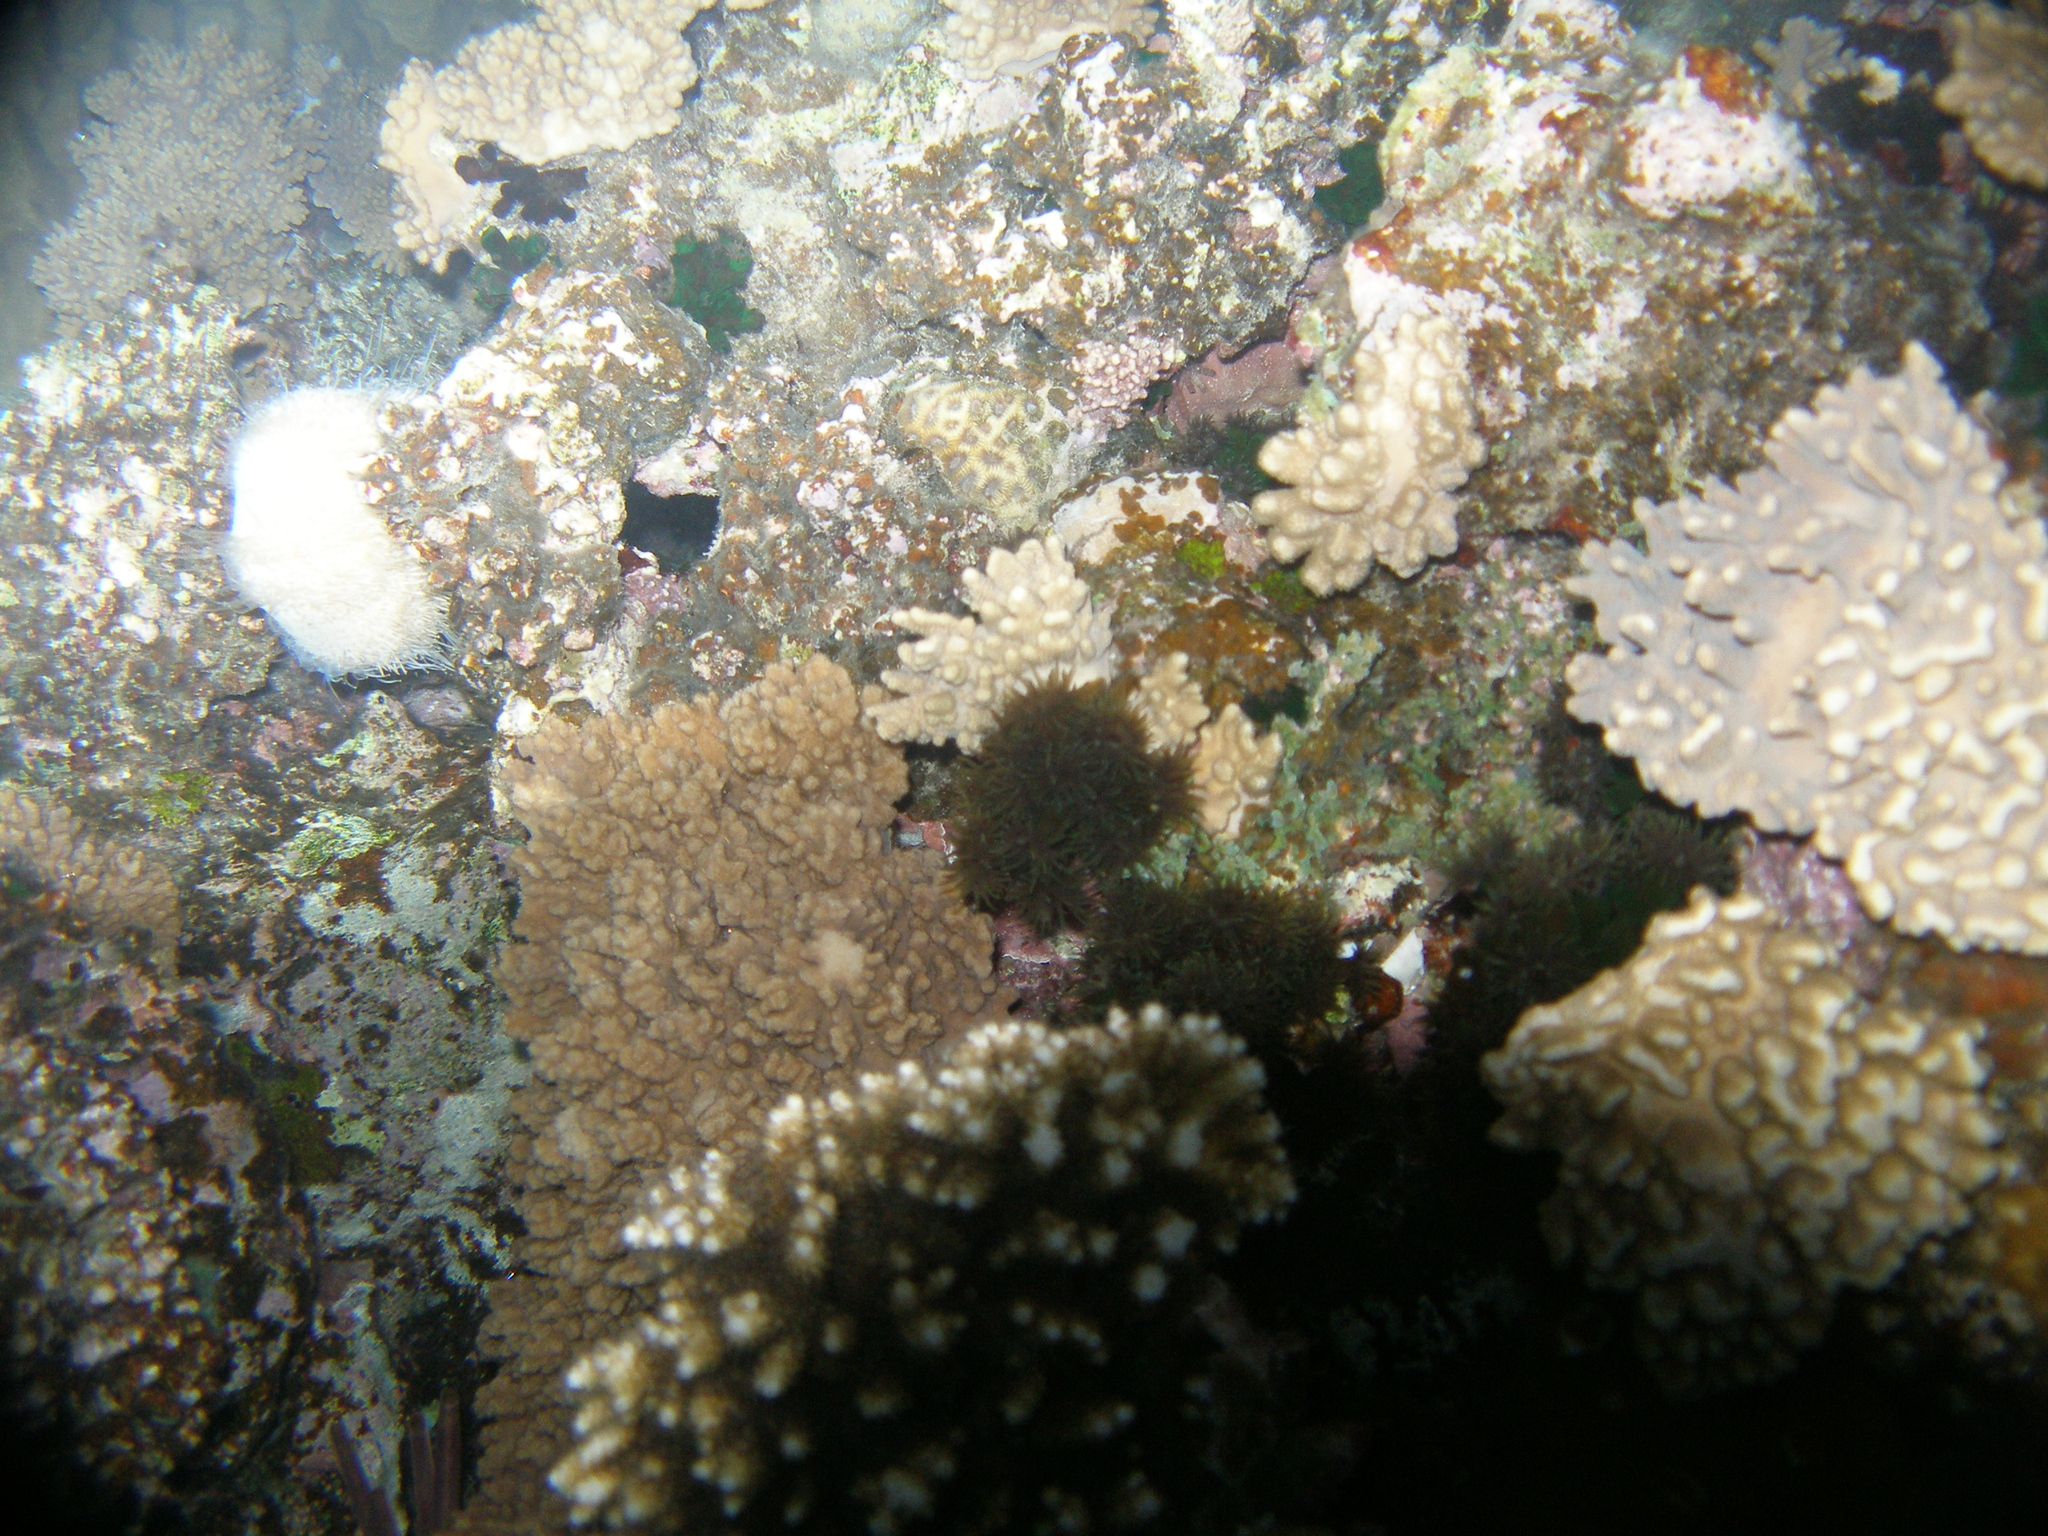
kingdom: Animalia
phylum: Cnidaria
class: Anthozoa
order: Scleractinia
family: Dendrophylliidae
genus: Tubastraea
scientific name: Tubastraea micranthus
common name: Black sun coral
